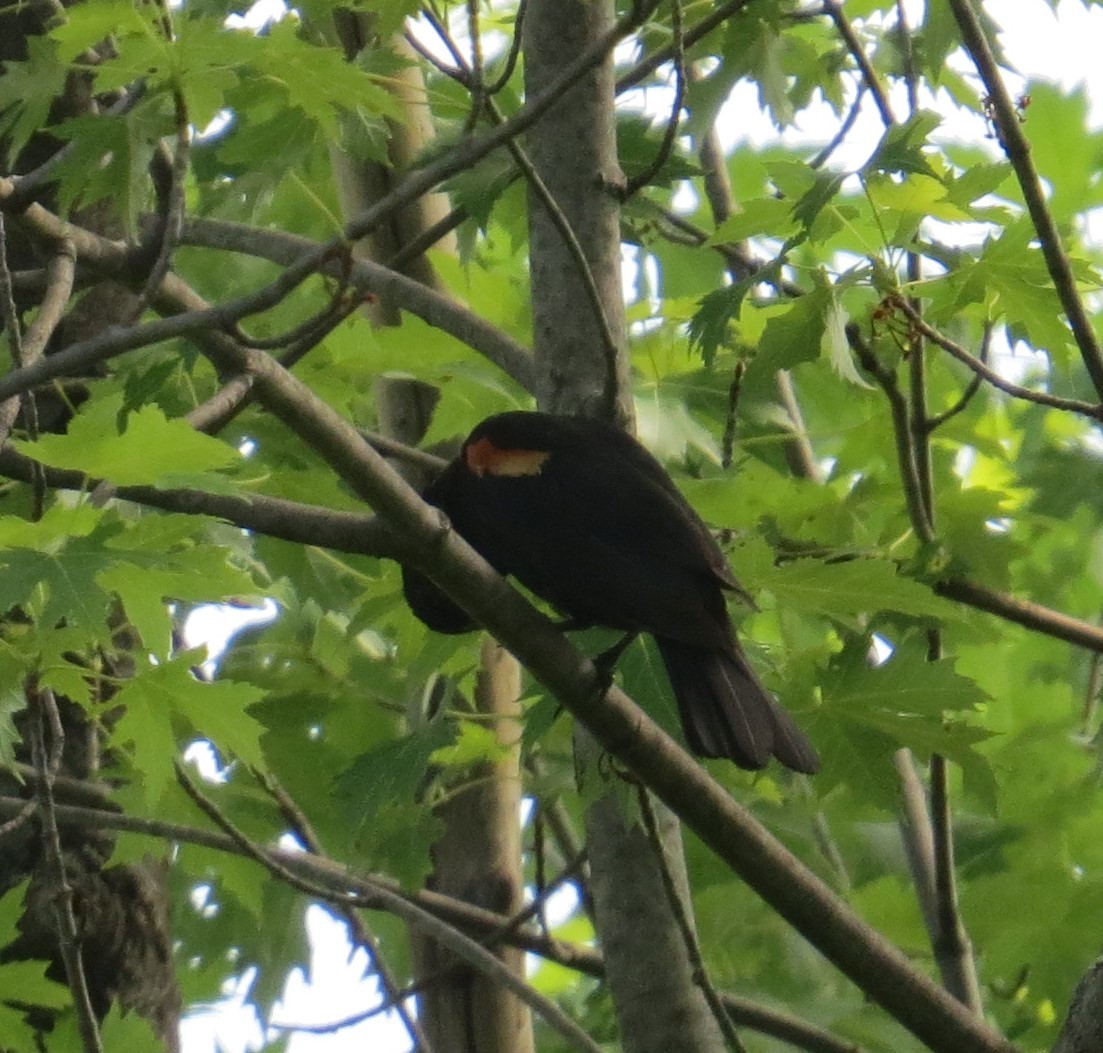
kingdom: Animalia
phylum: Chordata
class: Aves
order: Passeriformes
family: Icteridae
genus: Agelaius
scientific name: Agelaius phoeniceus
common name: Red-winged blackbird
